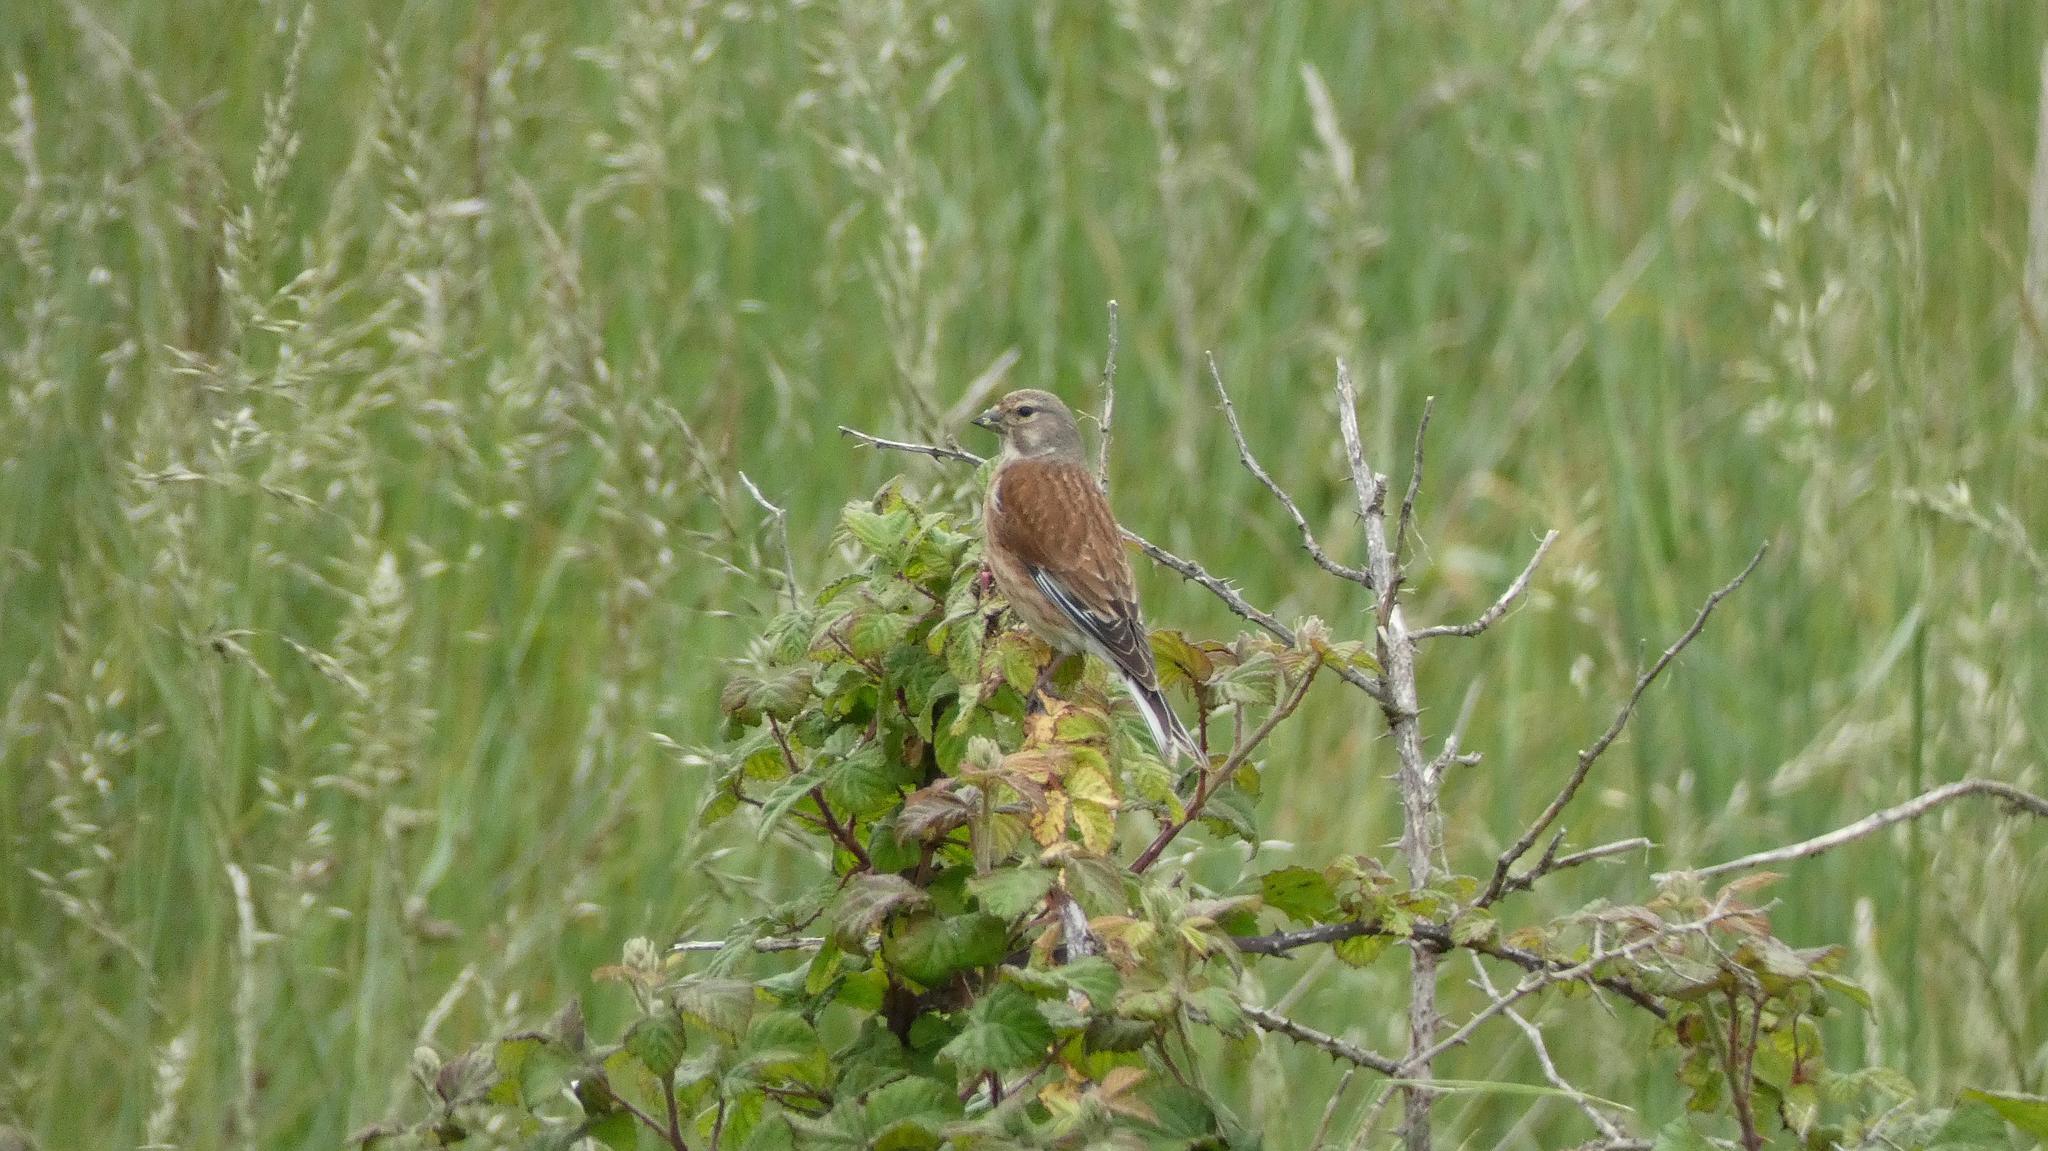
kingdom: Animalia
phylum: Chordata
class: Aves
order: Passeriformes
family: Fringillidae
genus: Linaria
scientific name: Linaria cannabina
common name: Common linnet
